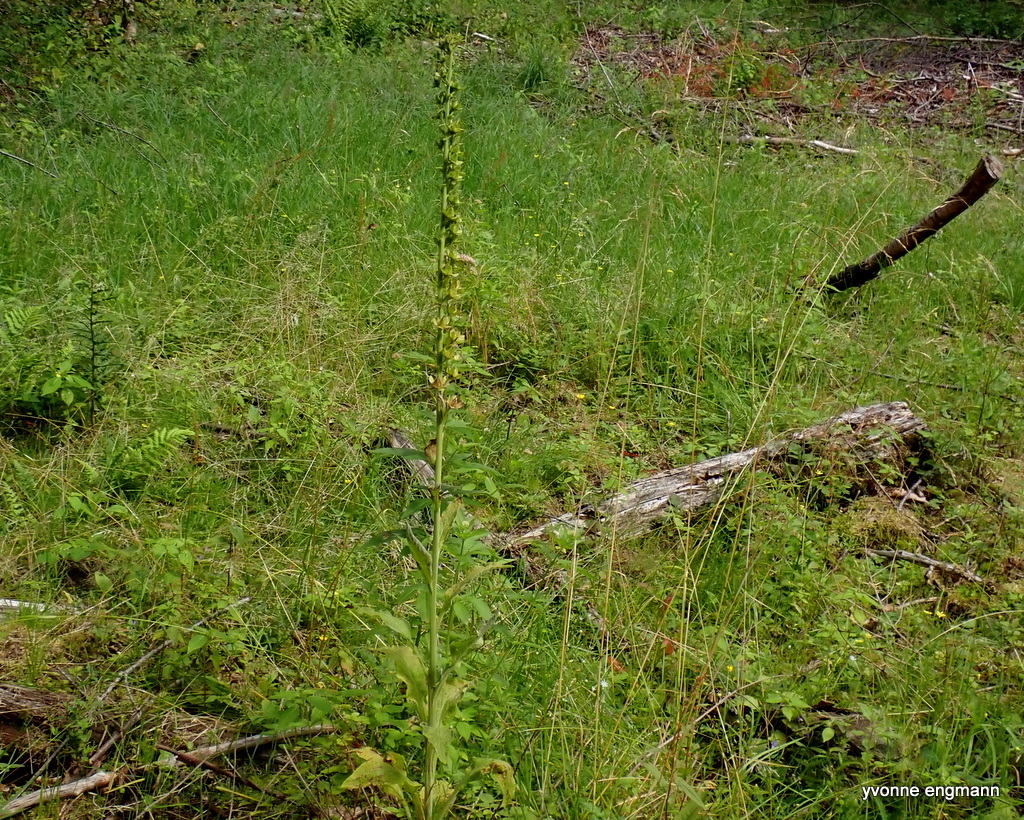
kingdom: Plantae
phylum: Tracheophyta
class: Magnoliopsida
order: Lamiales
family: Plantaginaceae
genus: Digitalis
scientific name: Digitalis purpurea
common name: Foxglove
